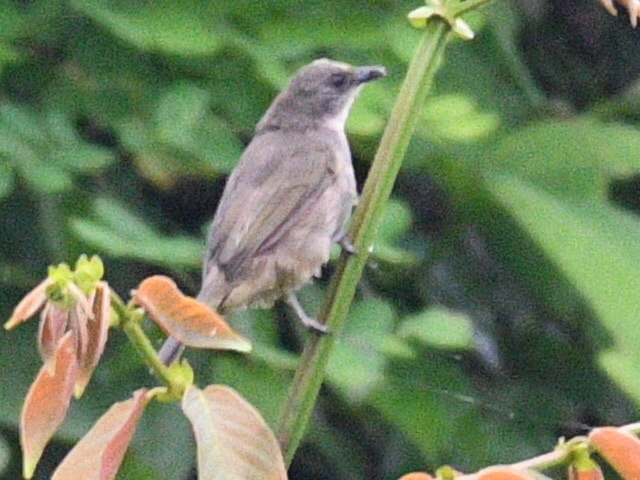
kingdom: Animalia
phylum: Chordata
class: Aves
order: Passeriformes
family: Pycnonotidae
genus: Pycnonotus
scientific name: Pycnonotus plumosus
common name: Olive-winged bulbul
